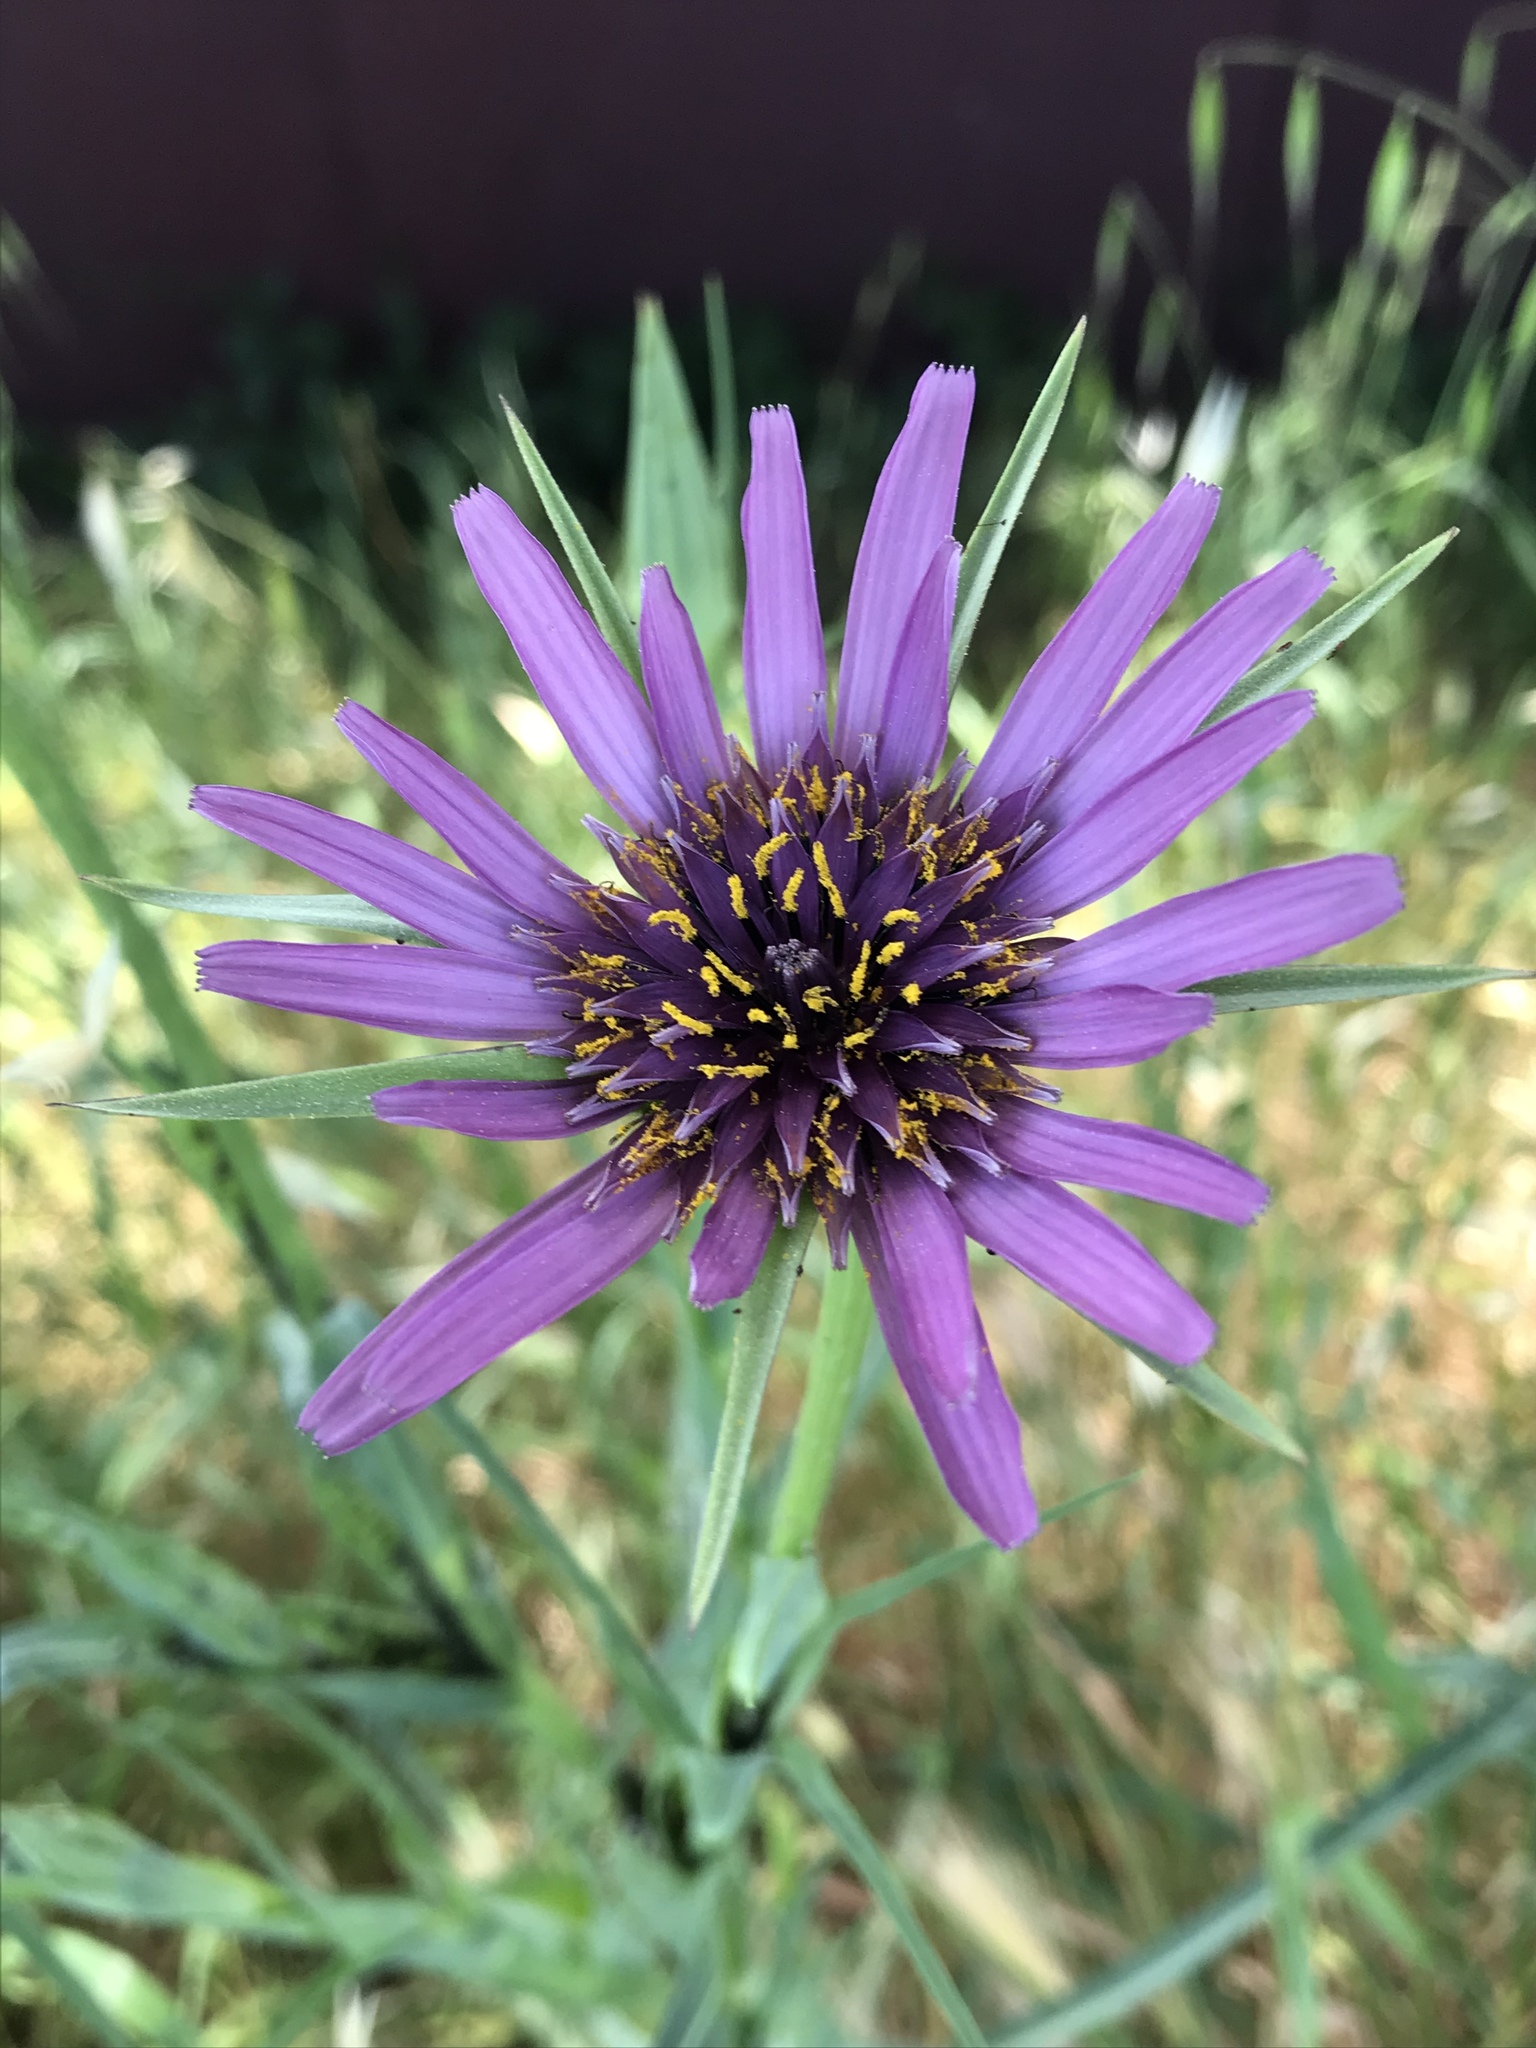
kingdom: Plantae
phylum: Tracheophyta
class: Magnoliopsida
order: Asterales
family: Asteraceae
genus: Tragopogon
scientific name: Tragopogon porrifolius
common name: Salsify
